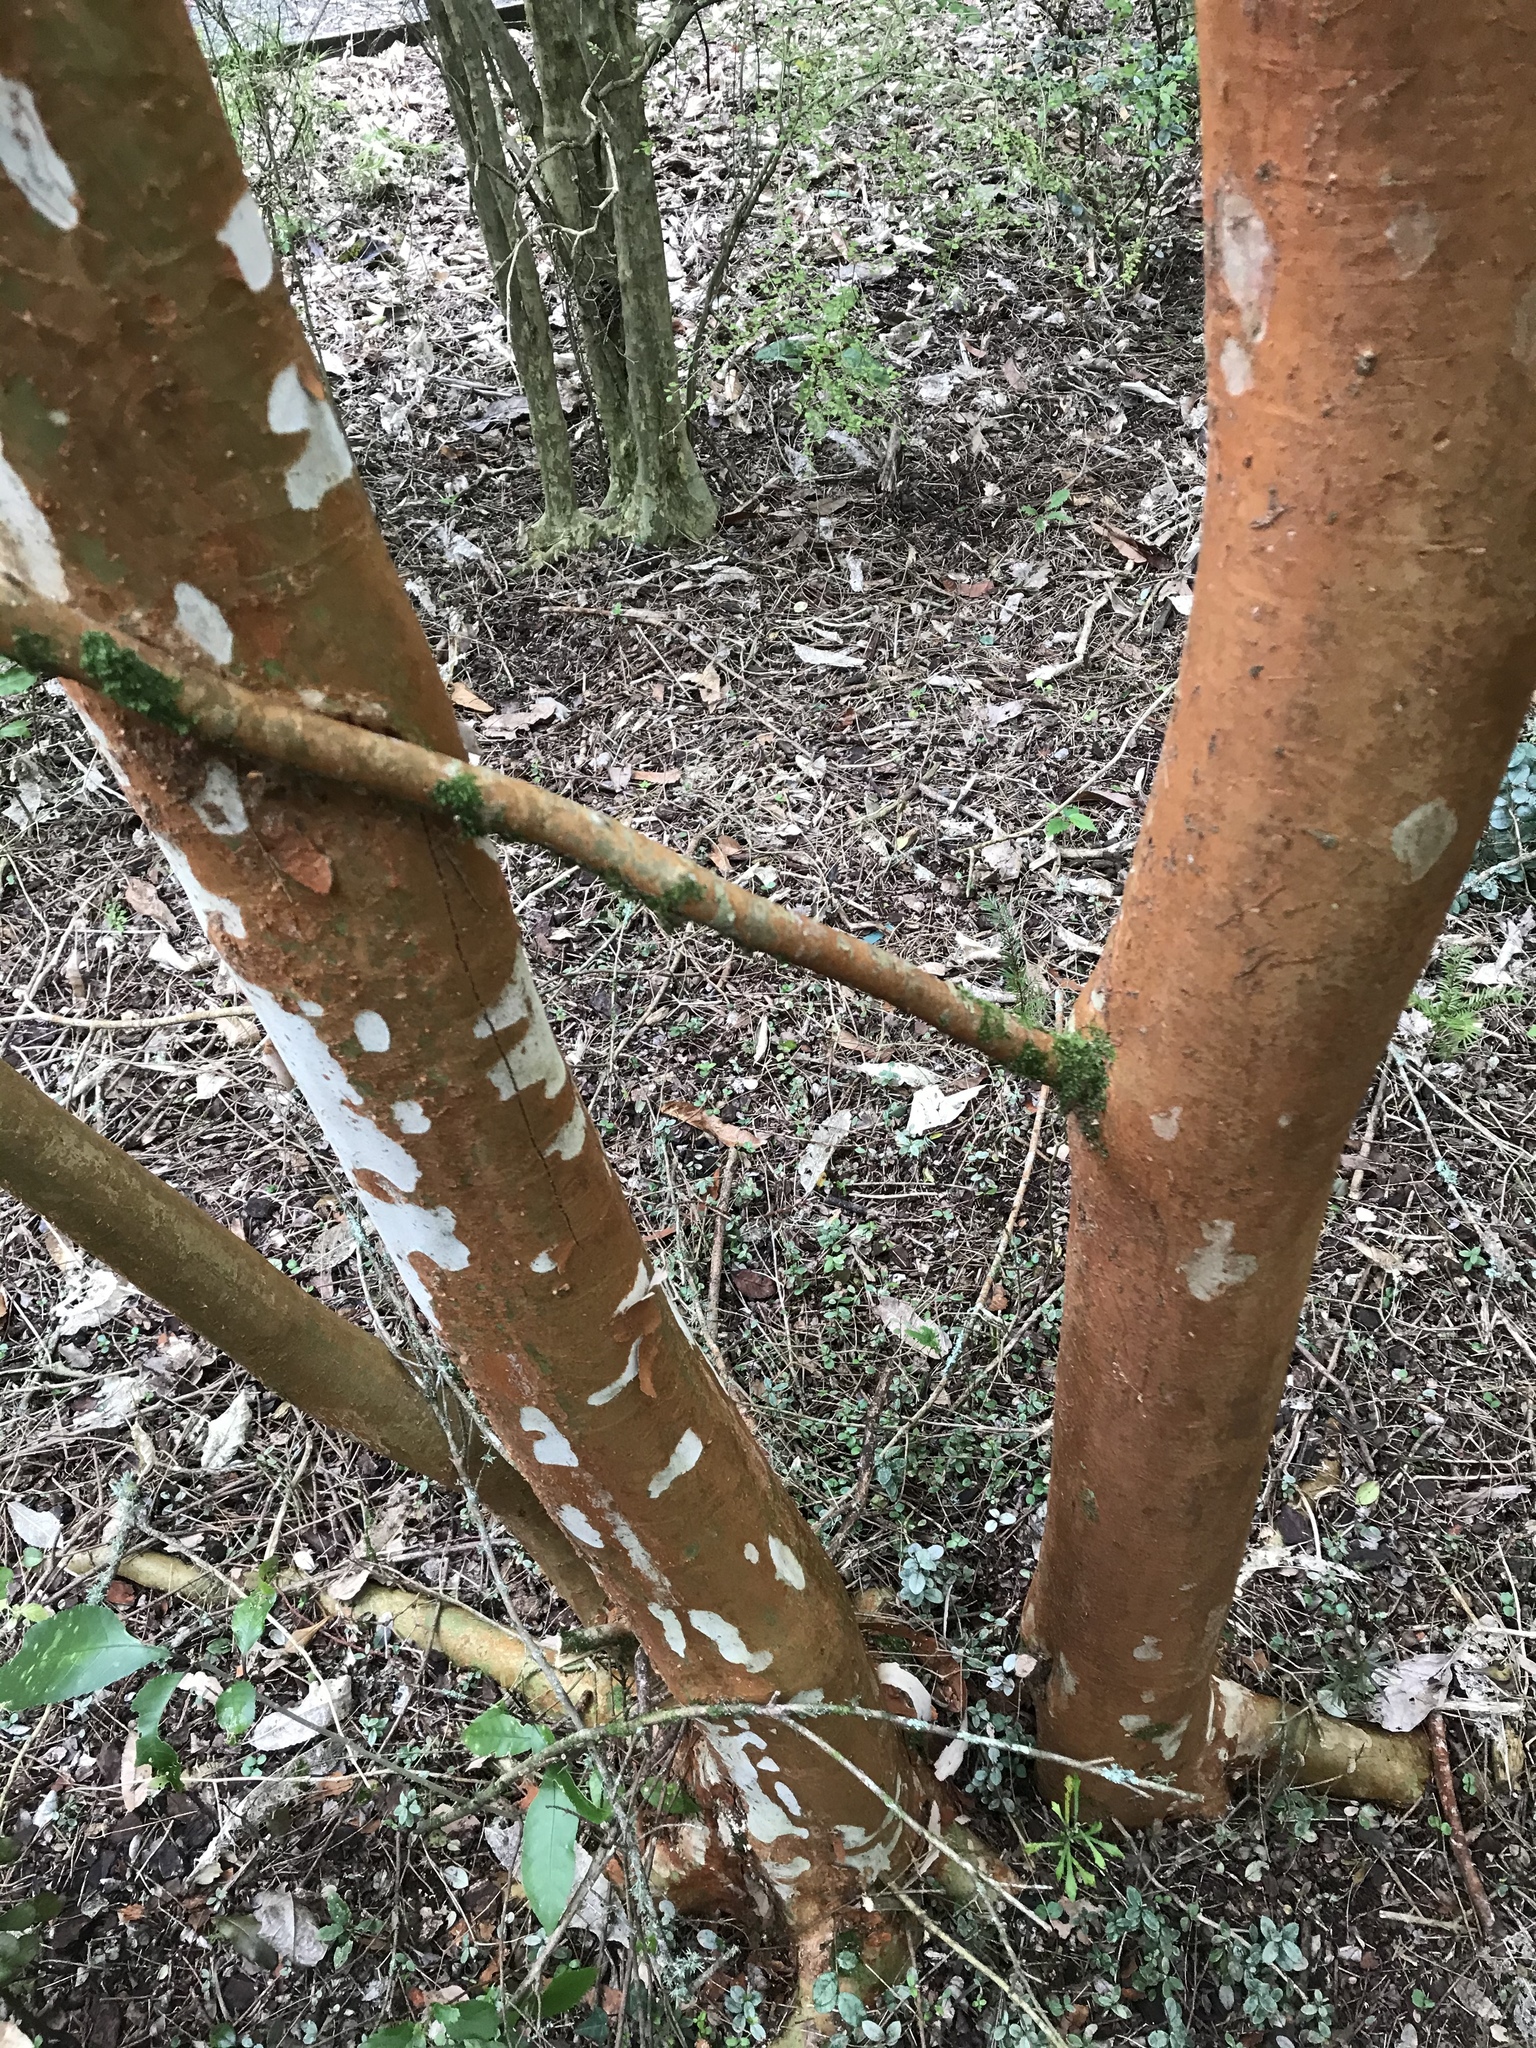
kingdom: Plantae
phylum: Tracheophyta
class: Magnoliopsida
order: Myrtales
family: Myrtaceae
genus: Luma
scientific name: Luma apiculata
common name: Chilean myrtle
